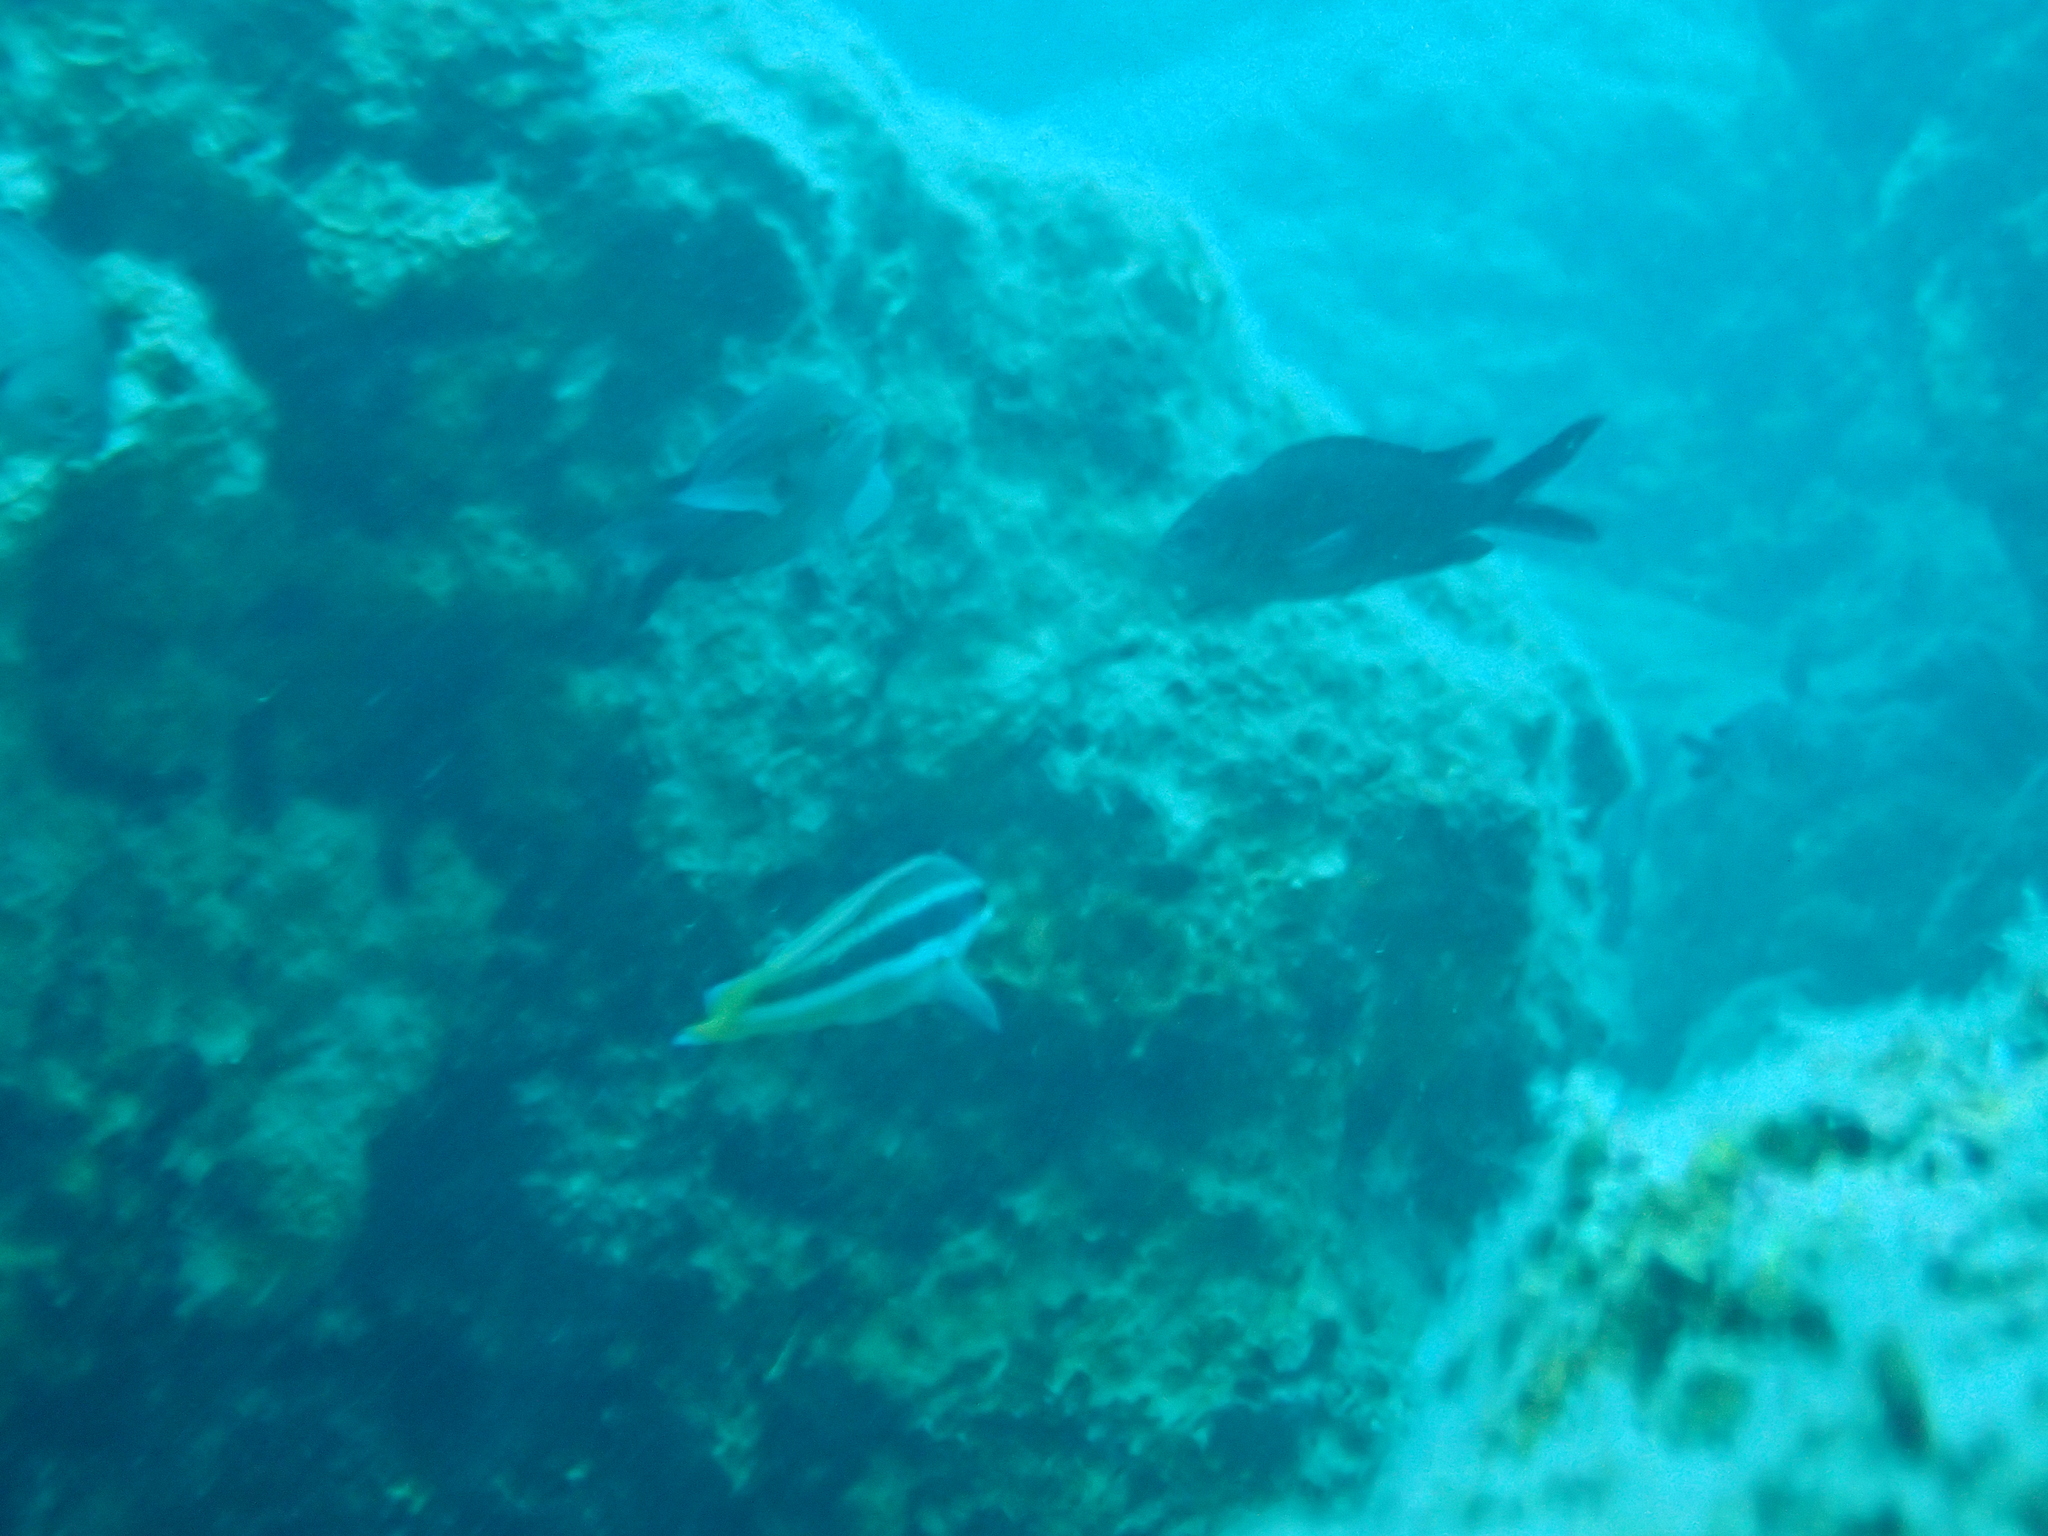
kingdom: Animalia
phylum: Chordata
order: Perciformes
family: Labridae
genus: Coris
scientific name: Coris julis
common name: Rainbow wrasse
